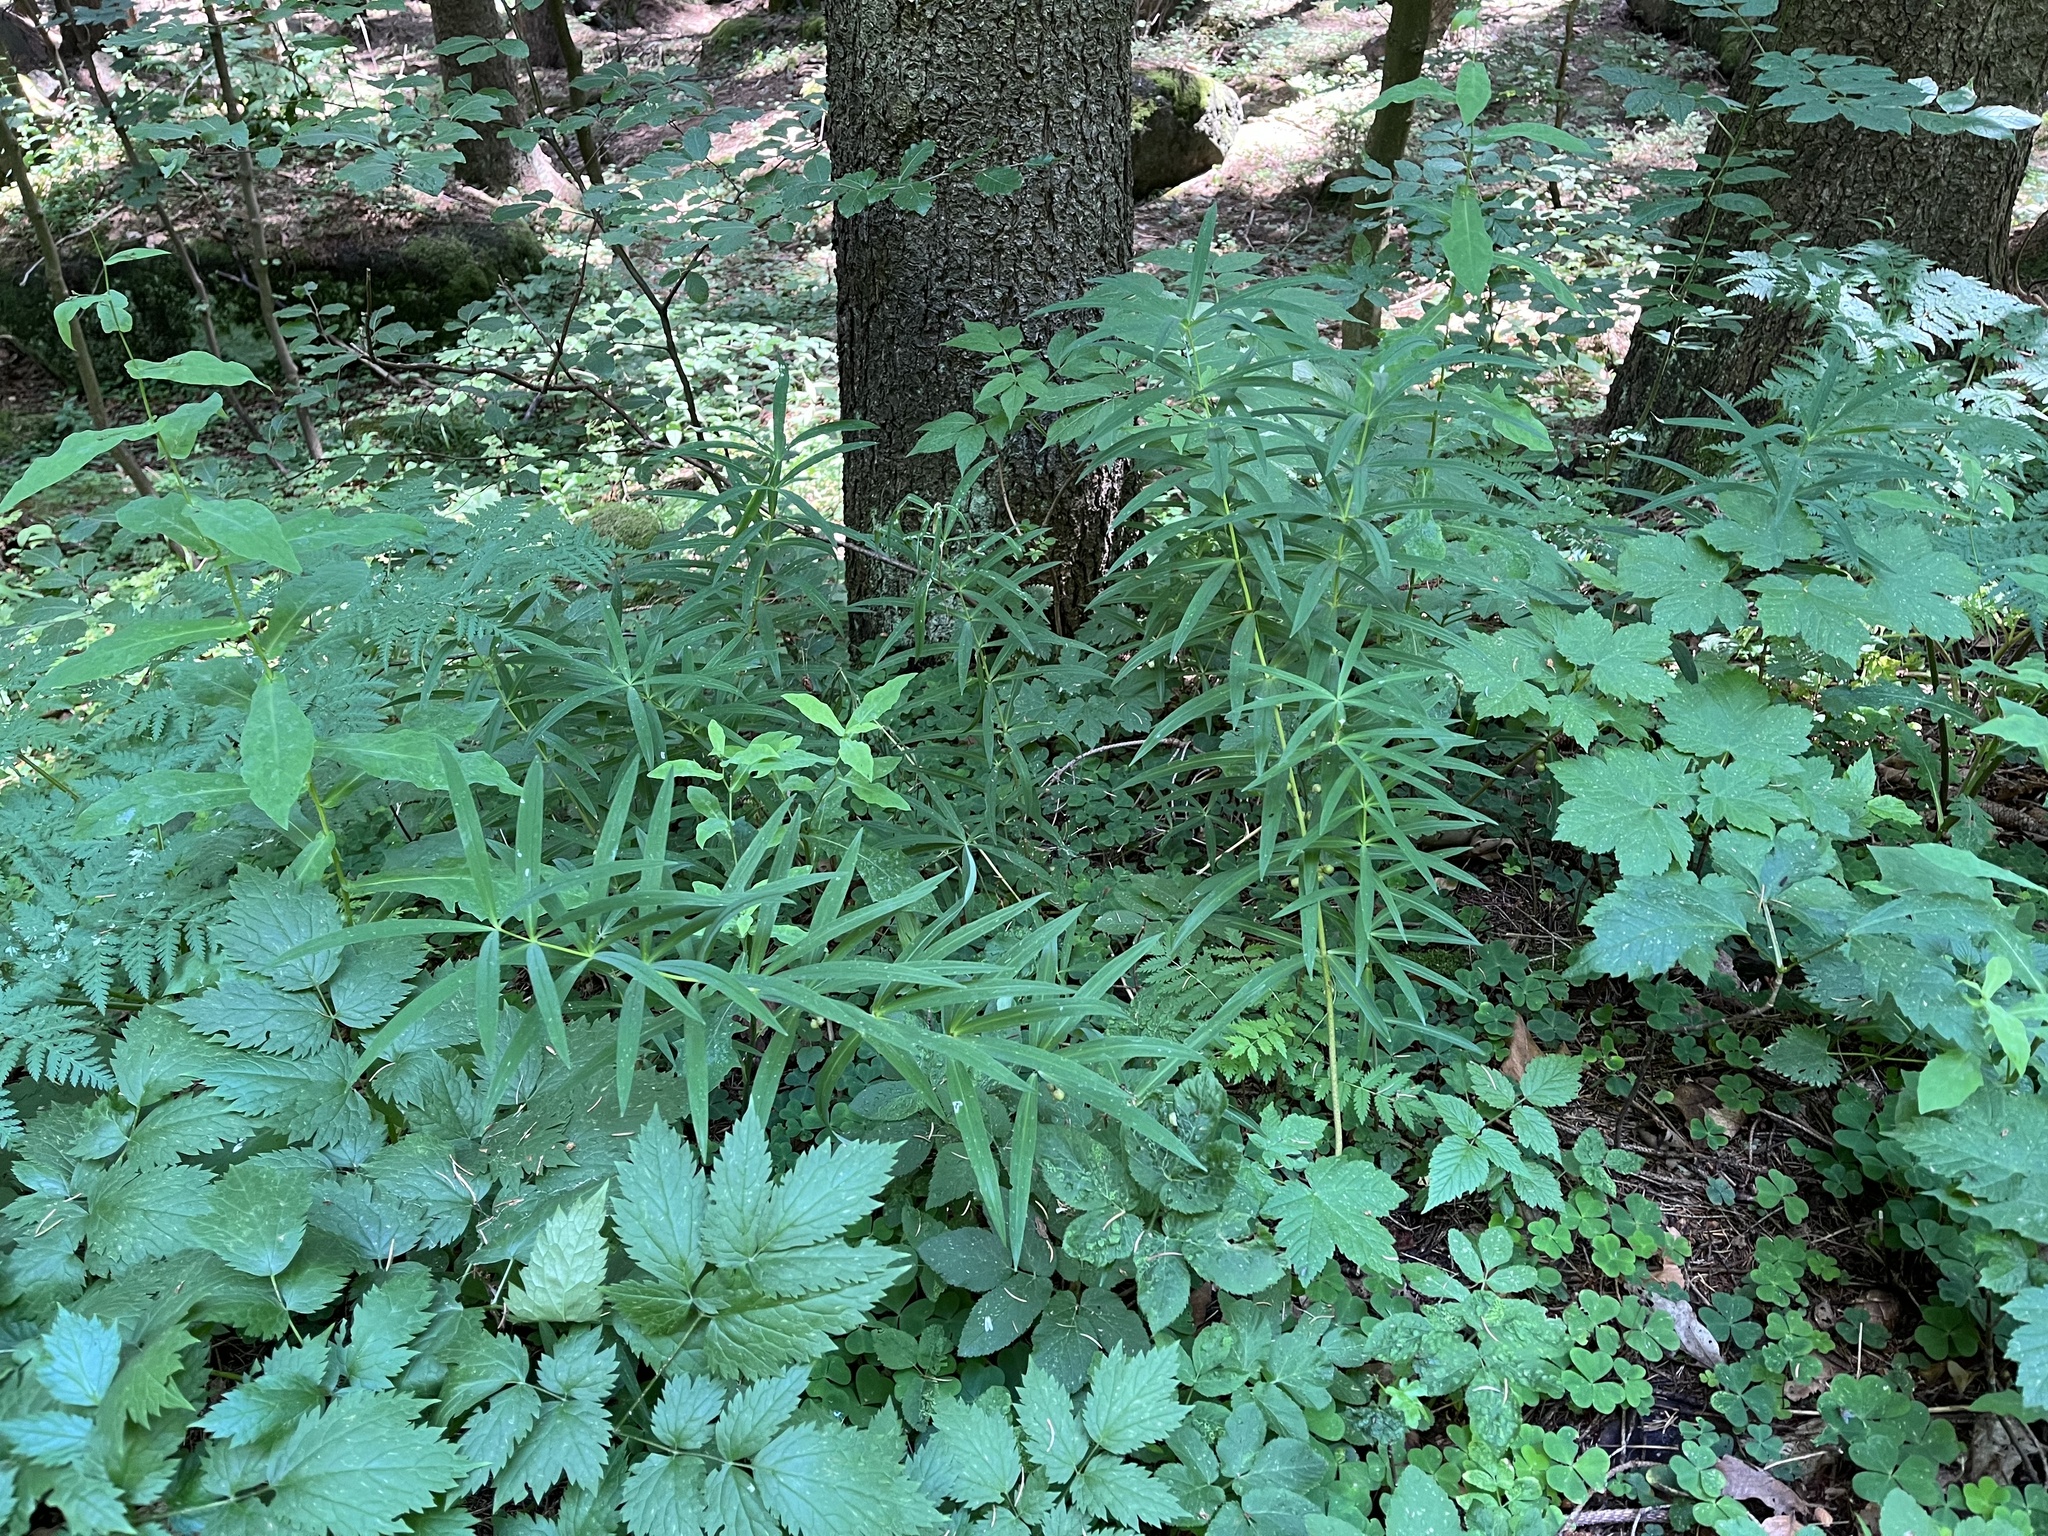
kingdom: Plantae
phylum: Tracheophyta
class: Liliopsida
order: Asparagales
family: Asparagaceae
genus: Polygonatum
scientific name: Polygonatum verticillatum
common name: Whorled solomon's-seal
